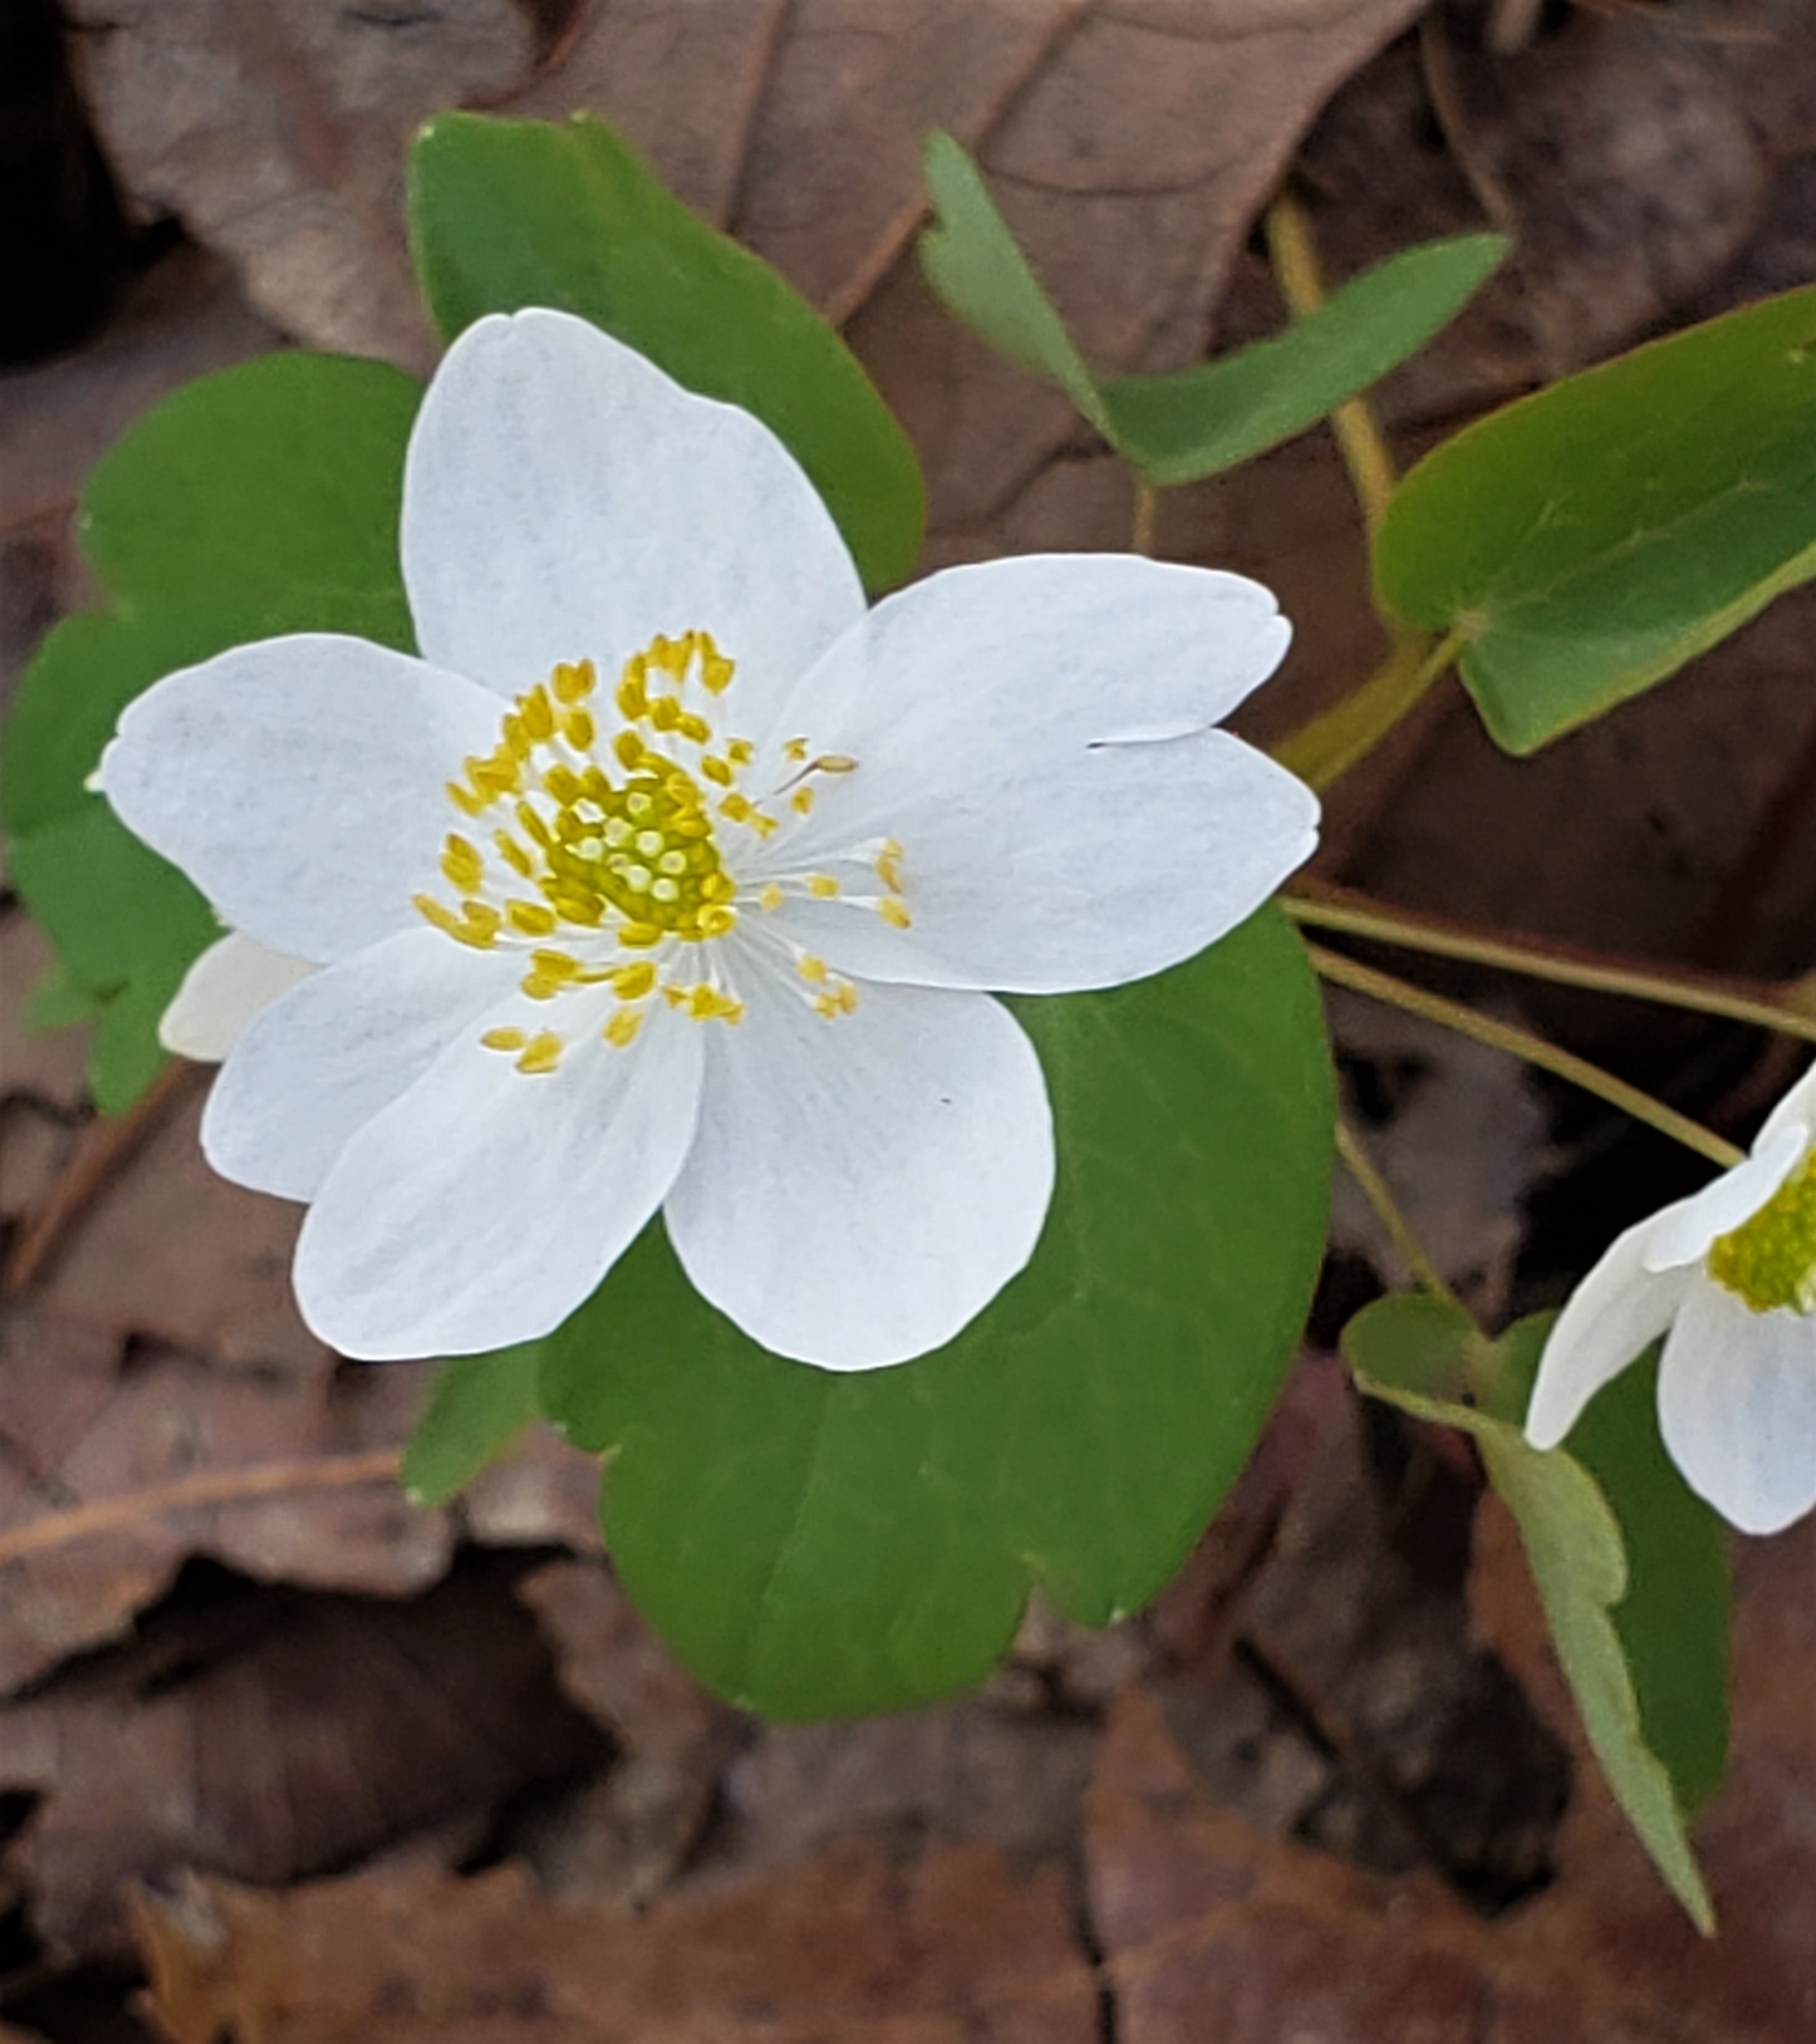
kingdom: Plantae
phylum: Tracheophyta
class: Magnoliopsida
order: Ranunculales
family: Ranunculaceae
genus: Thalictrum
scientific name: Thalictrum thalictroides
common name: Rue-anemone
